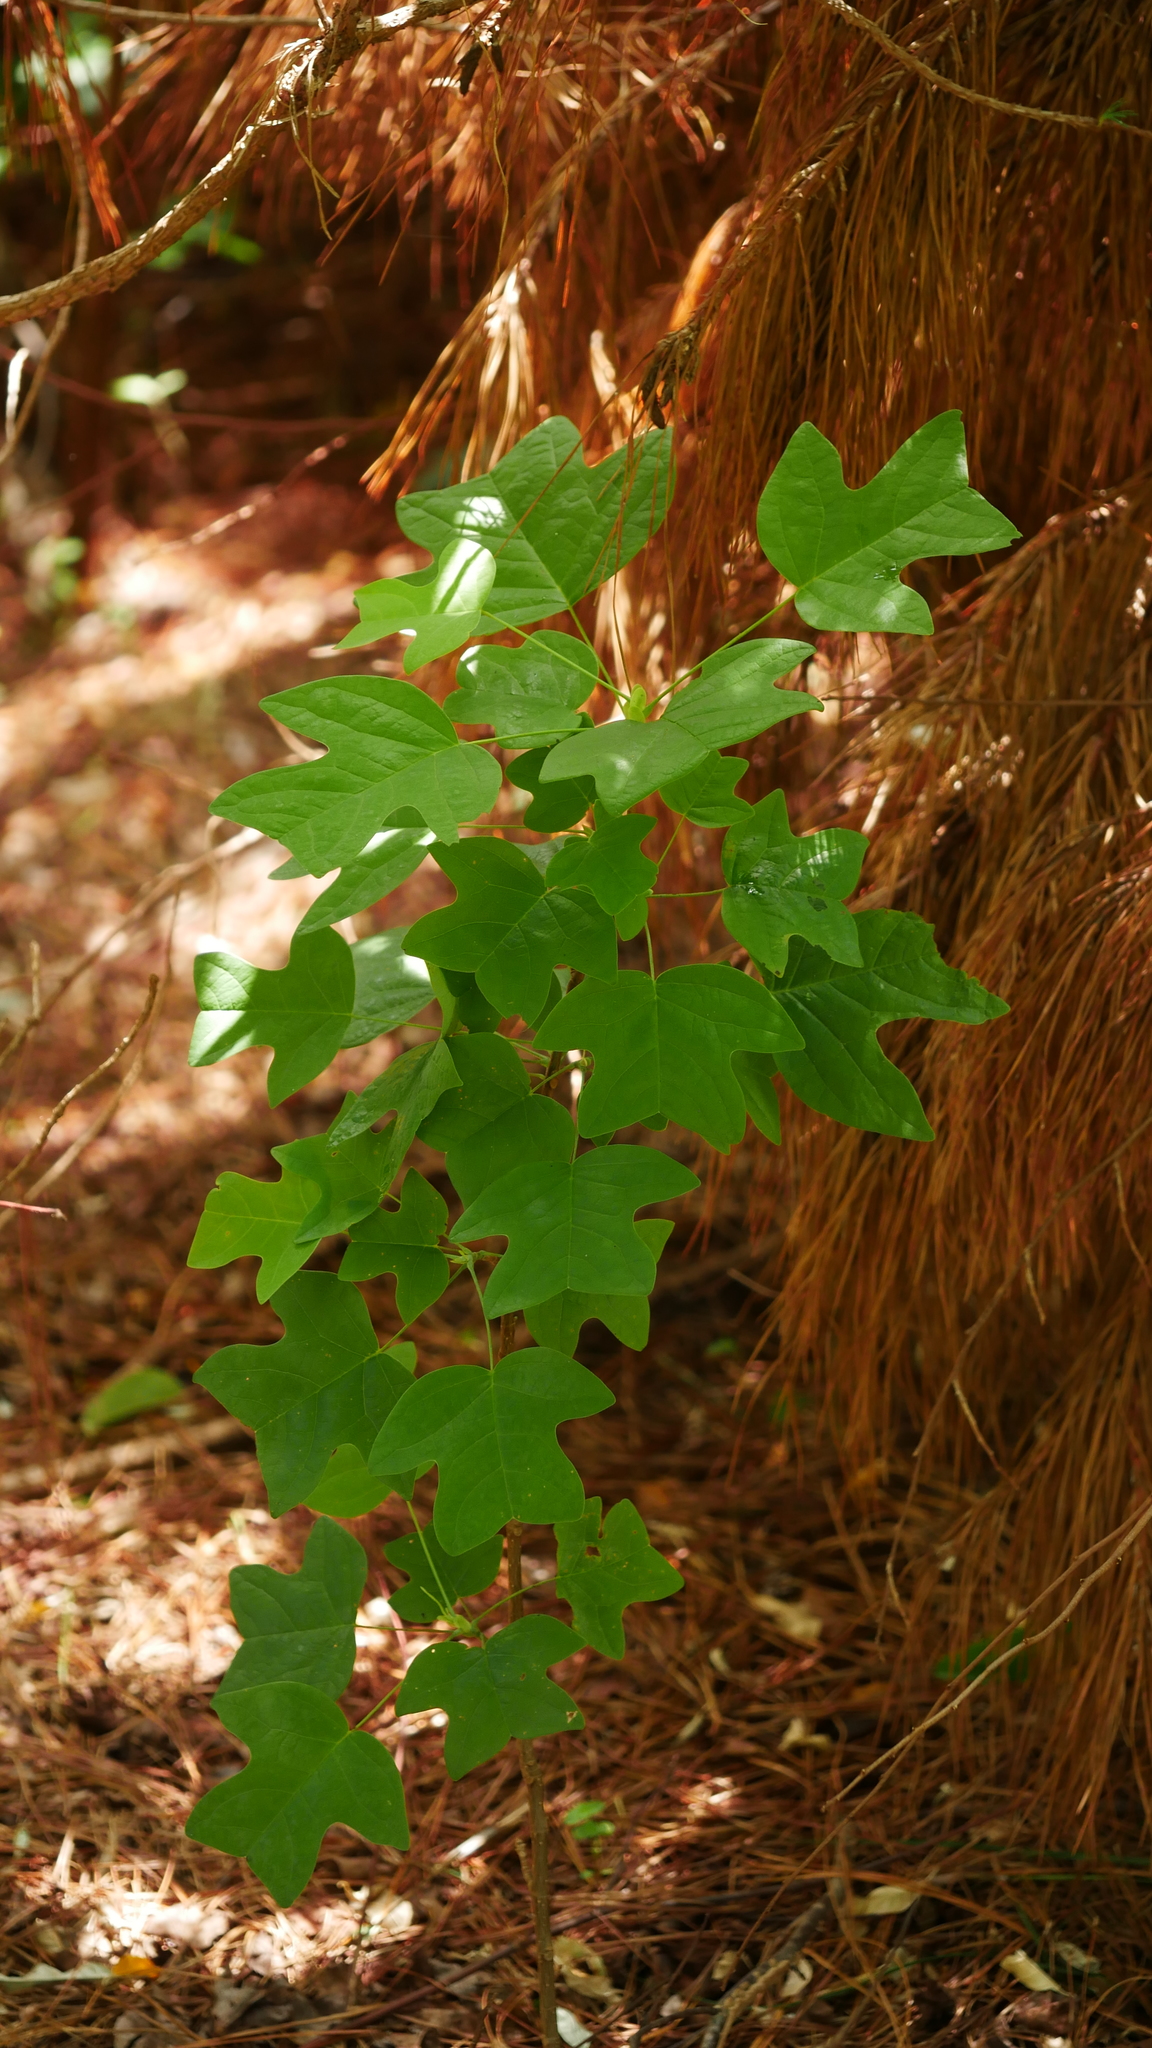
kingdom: Plantae
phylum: Tracheophyta
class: Magnoliopsida
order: Magnoliales
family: Magnoliaceae
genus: Liriodendron
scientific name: Liriodendron tulipifera
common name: Tulip tree
